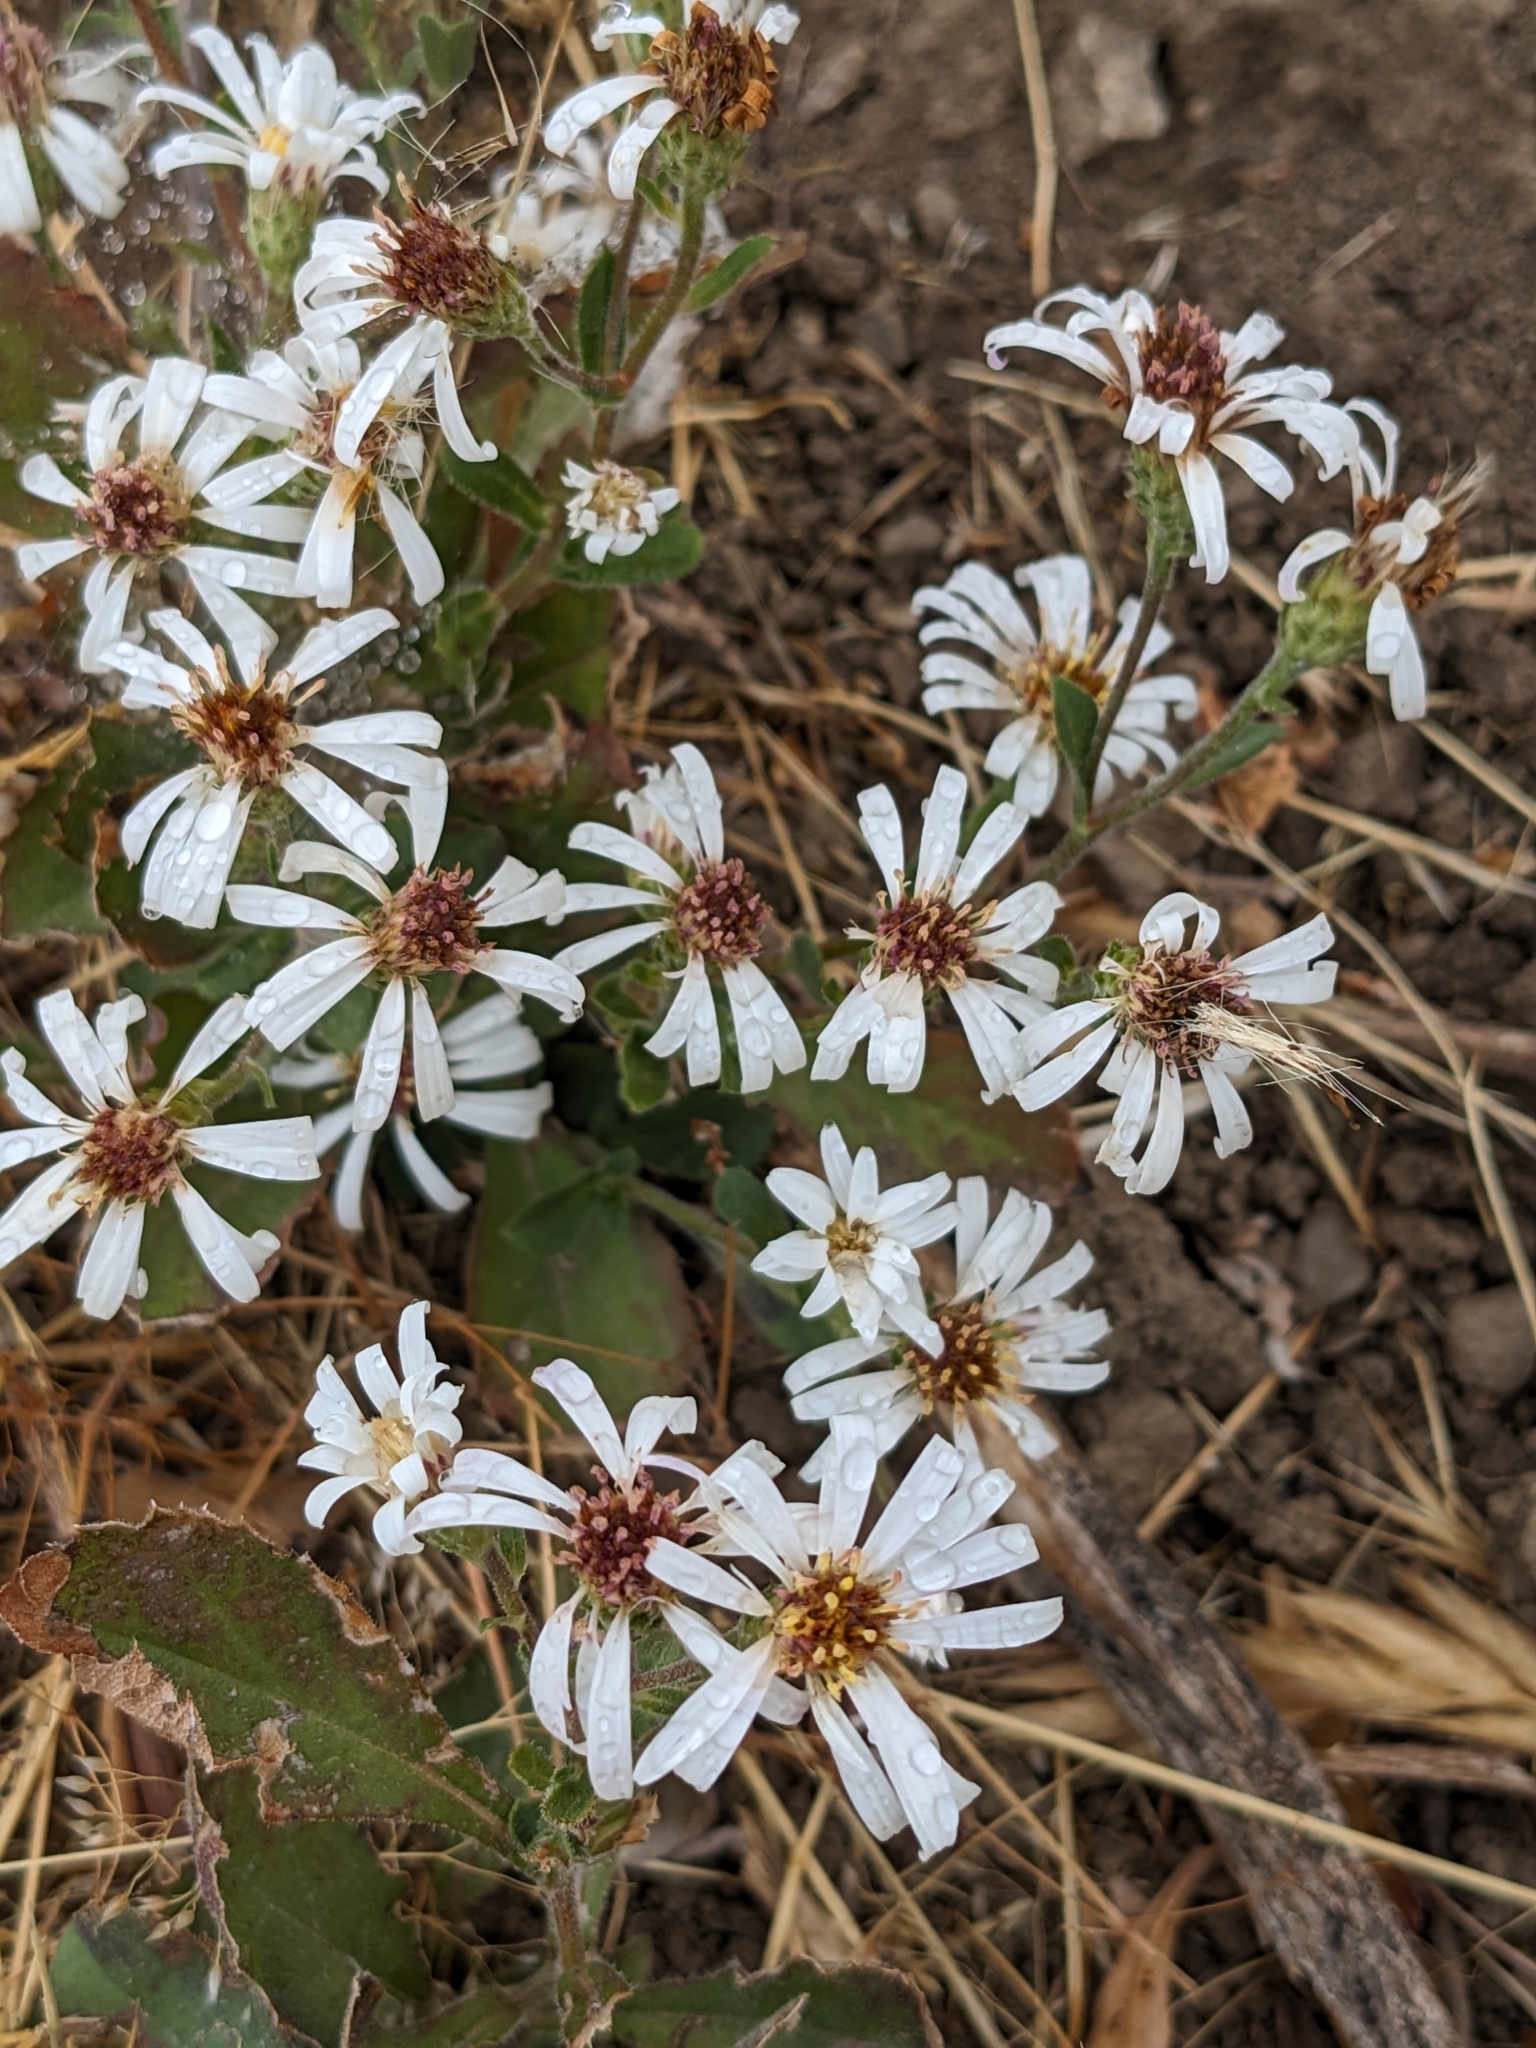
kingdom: Plantae
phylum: Tracheophyta
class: Magnoliopsida
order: Asterales
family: Asteraceae
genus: Eurybia
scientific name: Eurybia radulina
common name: Rough-leaved aster
